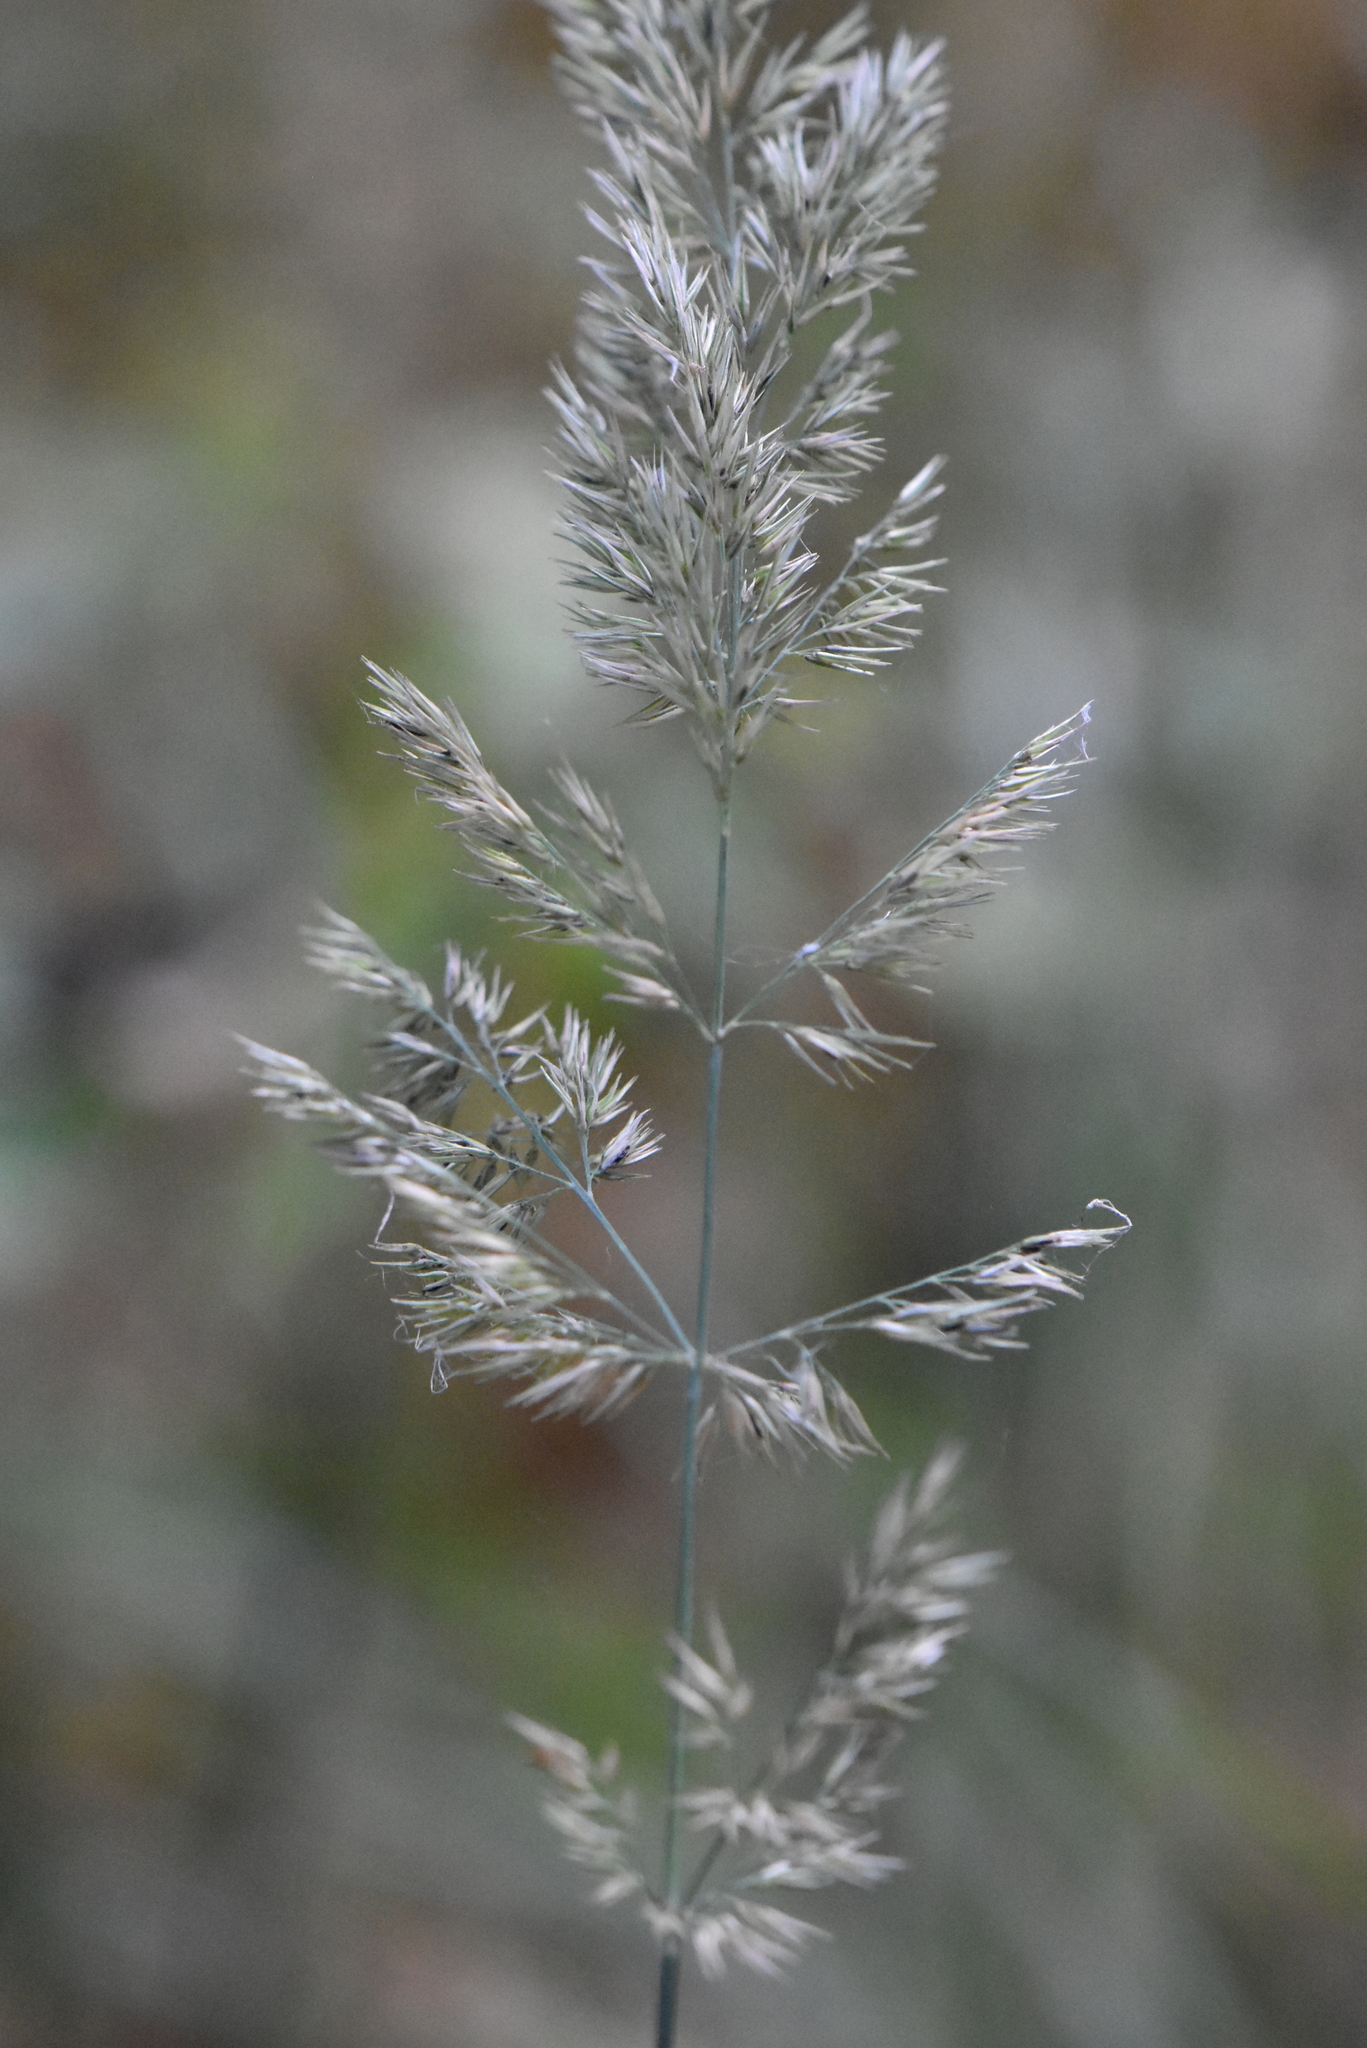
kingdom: Plantae
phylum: Tracheophyta
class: Liliopsida
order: Poales
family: Poaceae
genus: Calamagrostis
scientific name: Calamagrostis epigejos
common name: Wood small-reed
